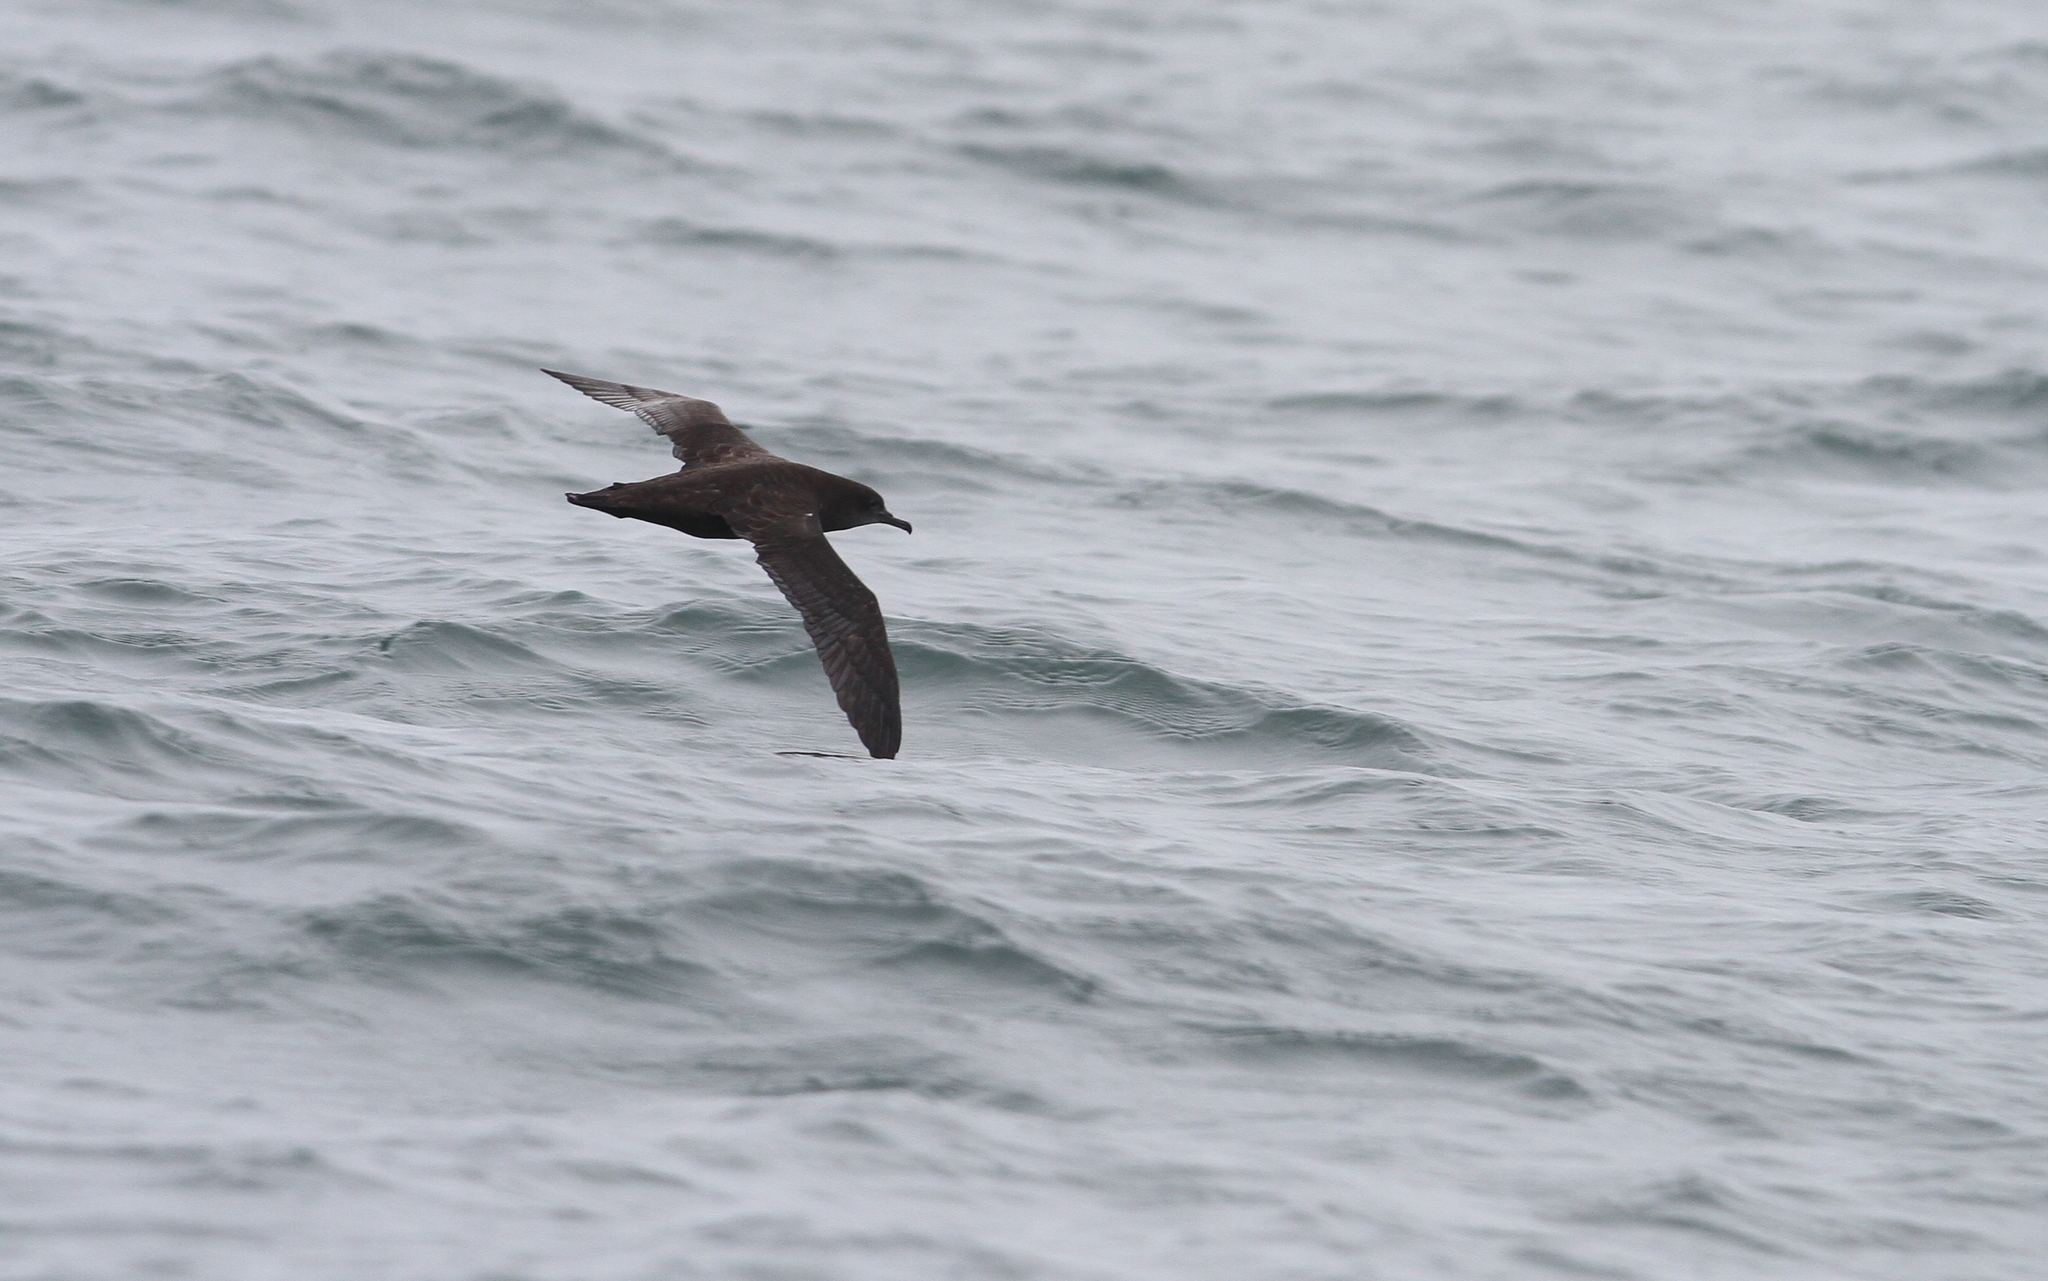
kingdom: Animalia
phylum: Chordata
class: Aves
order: Procellariiformes
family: Procellariidae
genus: Puffinus
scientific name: Puffinus griseus
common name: Sooty shearwater
